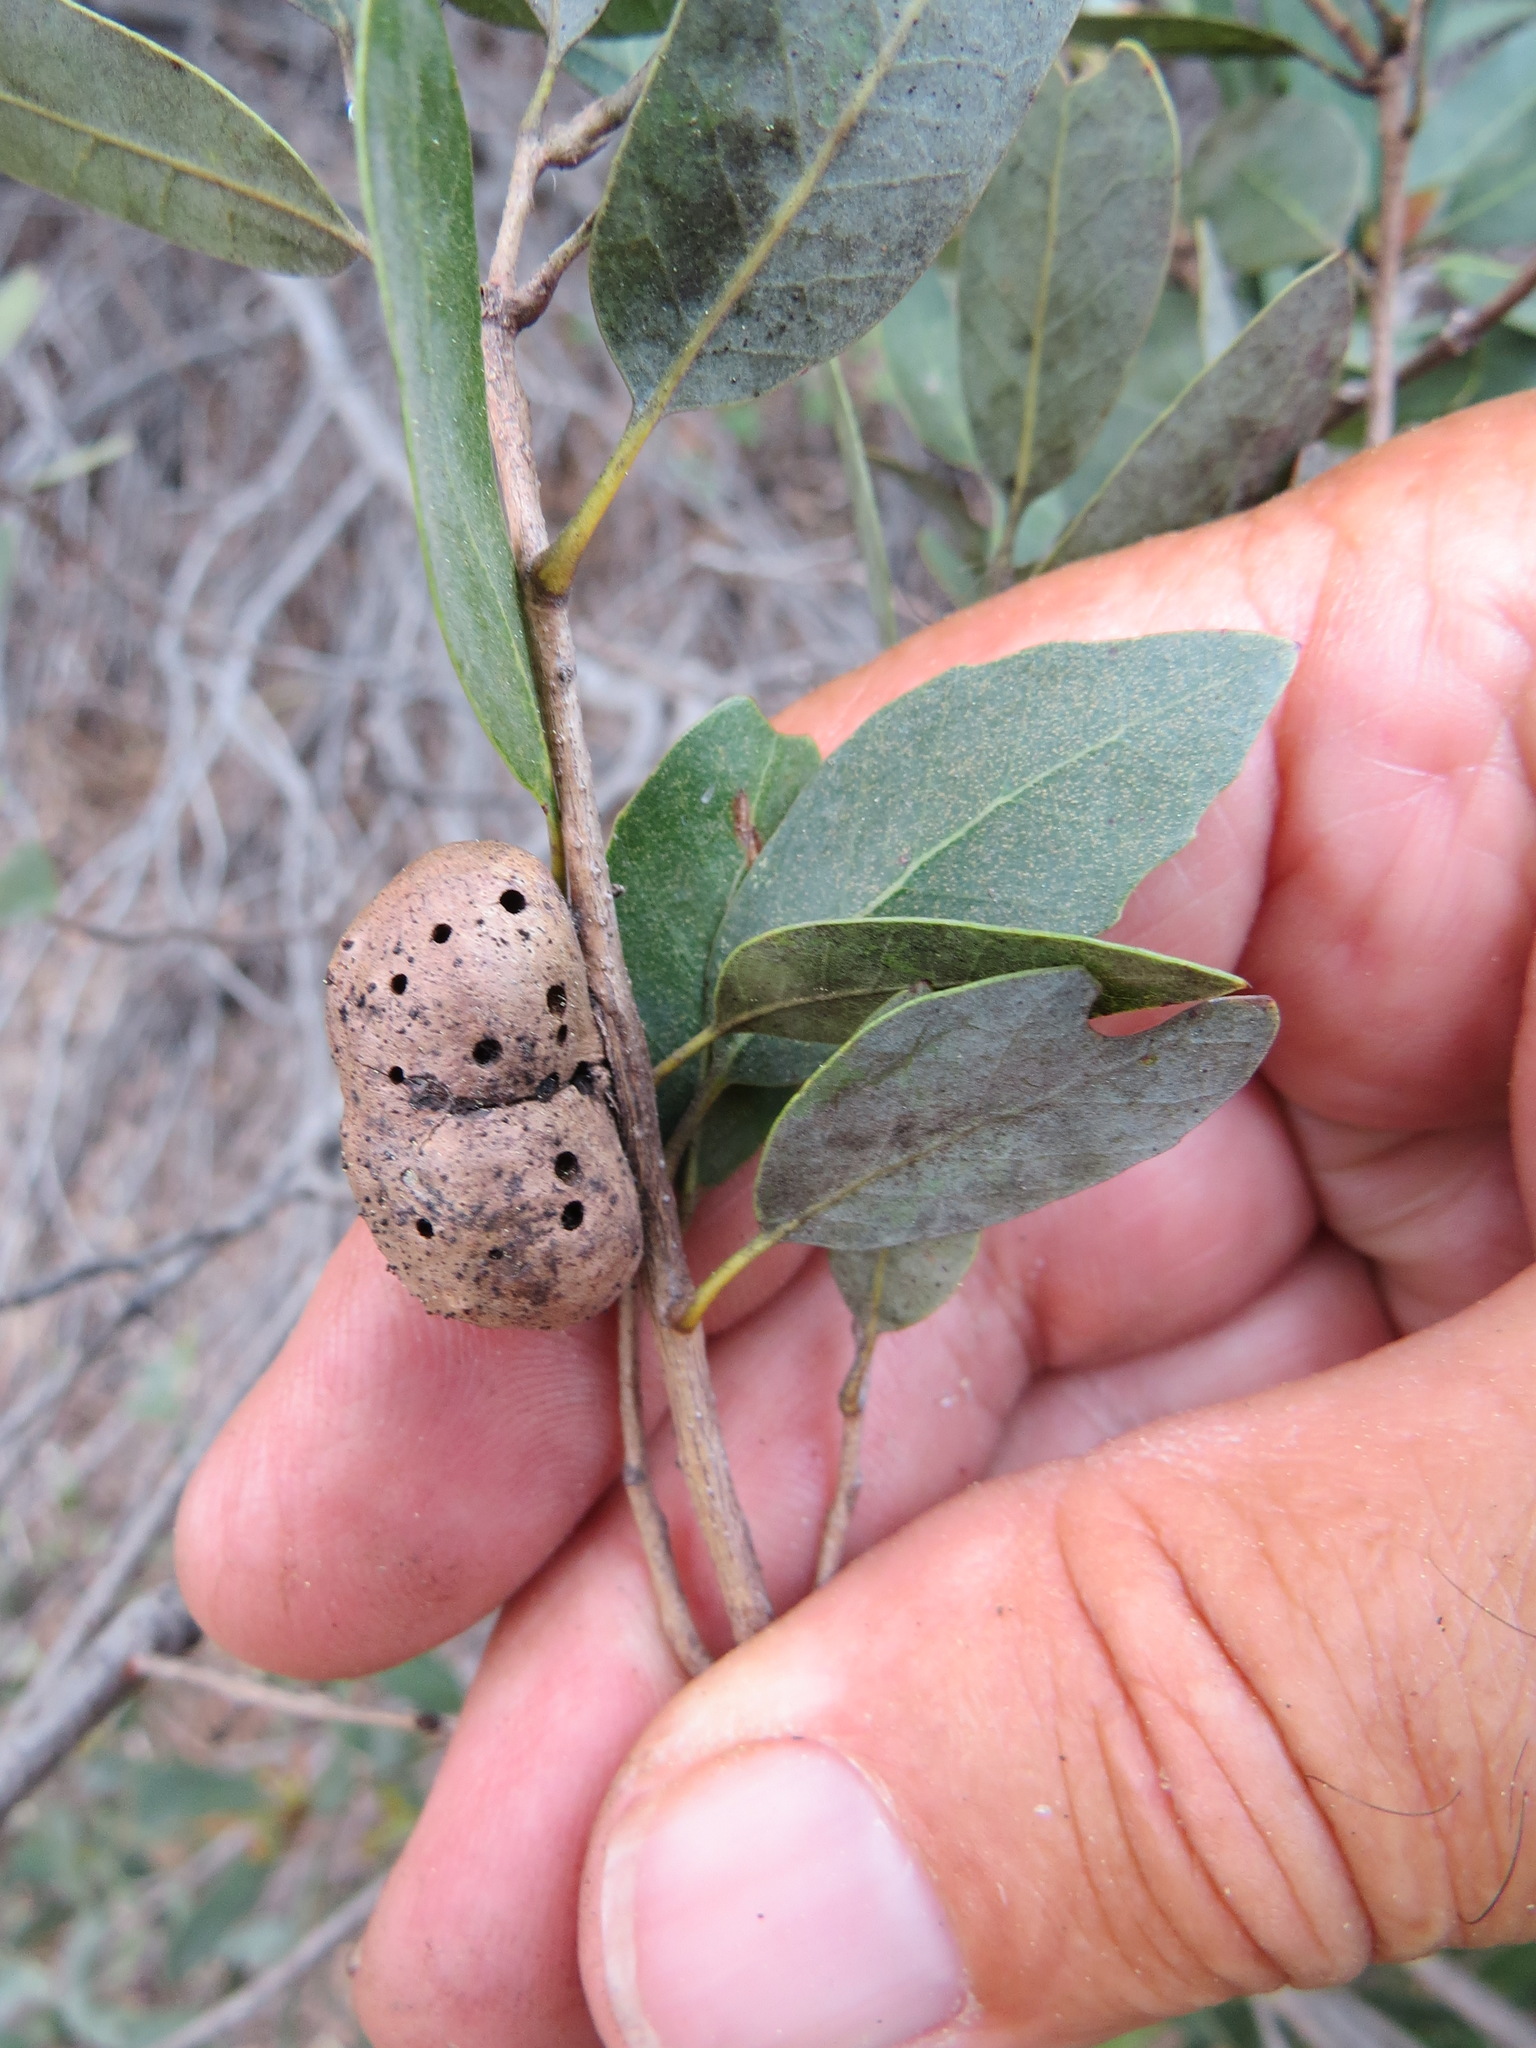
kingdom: Animalia
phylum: Arthropoda
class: Insecta
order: Hymenoptera
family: Cynipidae
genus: Disholandricus
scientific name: Disholandricus
